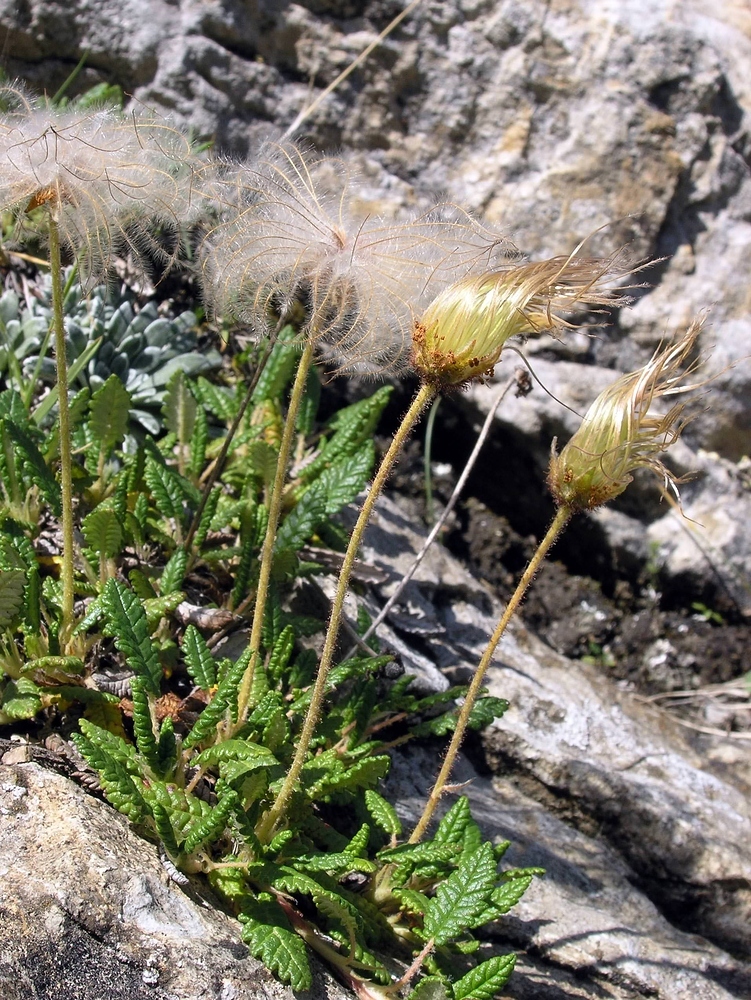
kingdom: Plantae
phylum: Tracheophyta
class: Magnoliopsida
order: Rosales
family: Rosaceae
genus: Dryas
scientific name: Dryas octopetala
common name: Eight-petal mountain-avens
